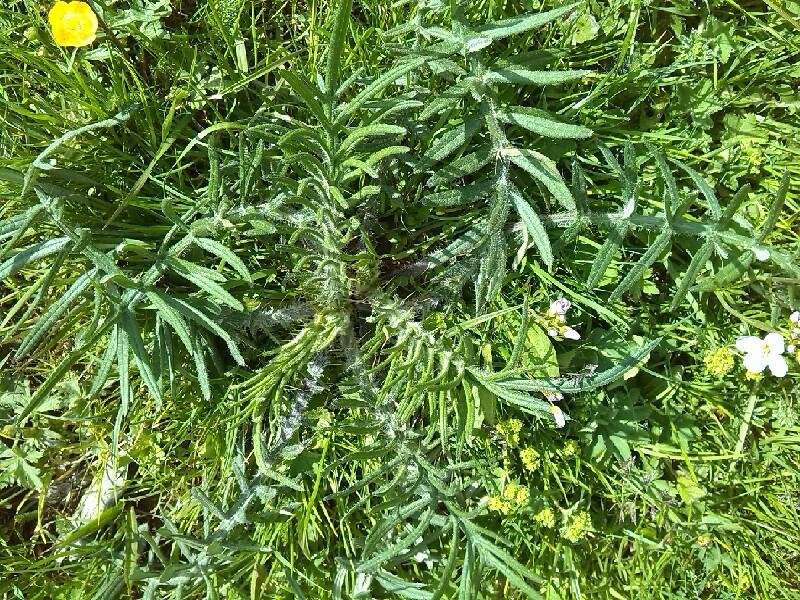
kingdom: Plantae
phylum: Tracheophyta
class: Magnoliopsida
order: Asterales
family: Asteraceae
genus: Lophiolepis
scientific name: Lophiolepis eriophora
